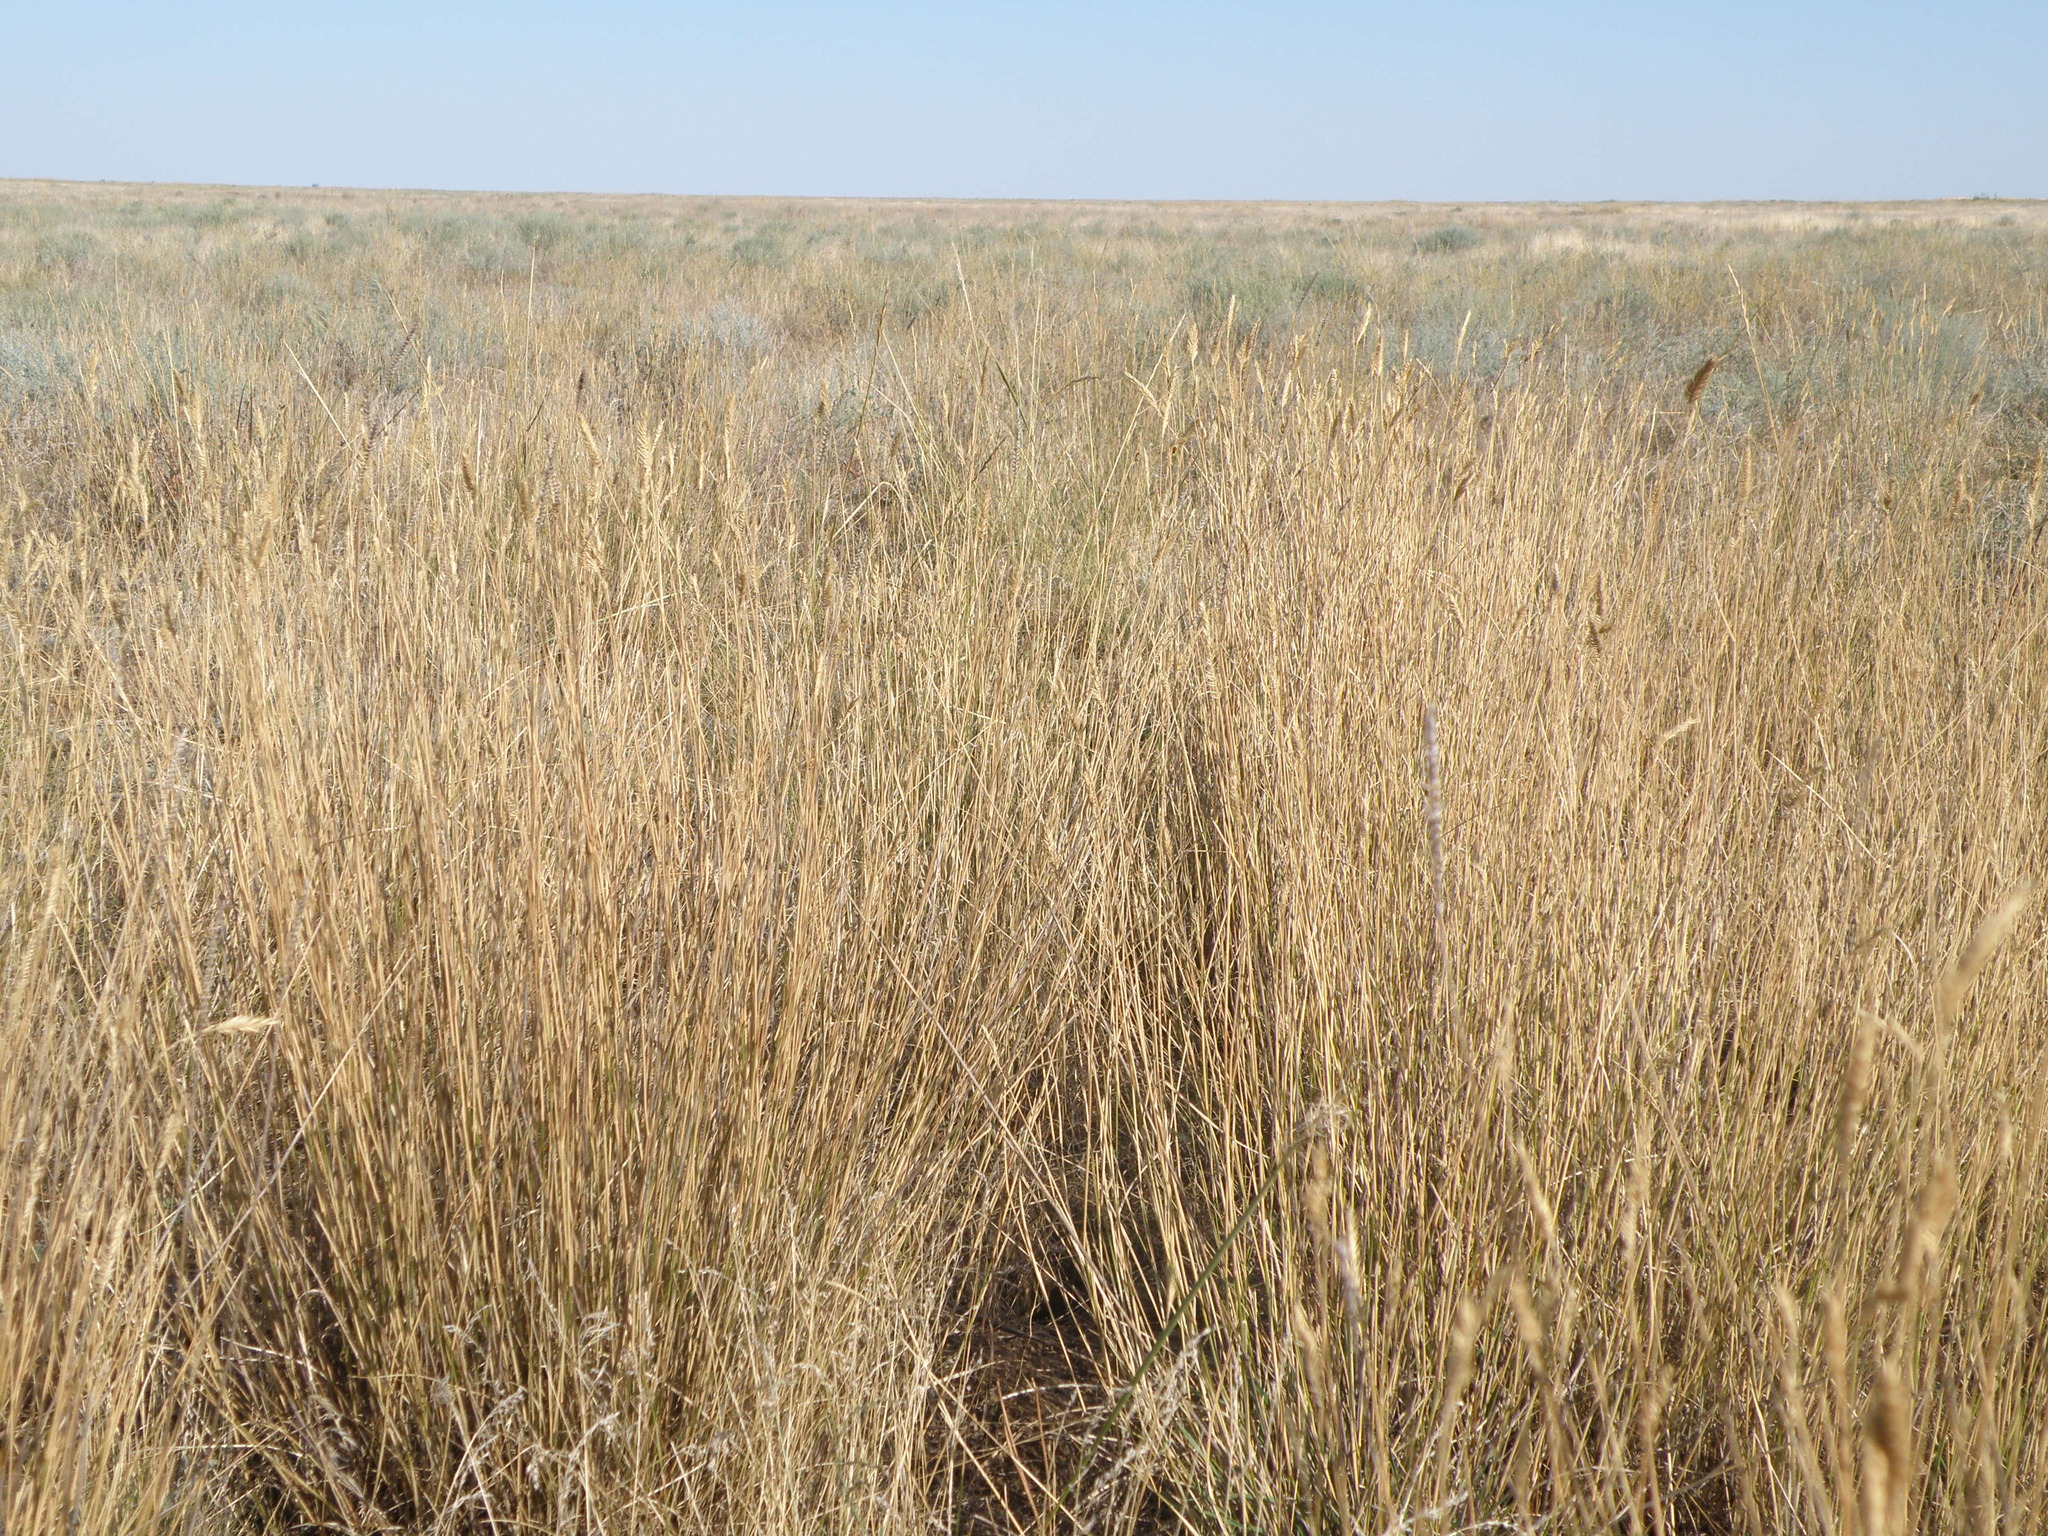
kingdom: Plantae
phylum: Tracheophyta
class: Liliopsida
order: Poales
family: Poaceae
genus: Agropyron
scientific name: Agropyron cristatum
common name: Crested wheatgrass
